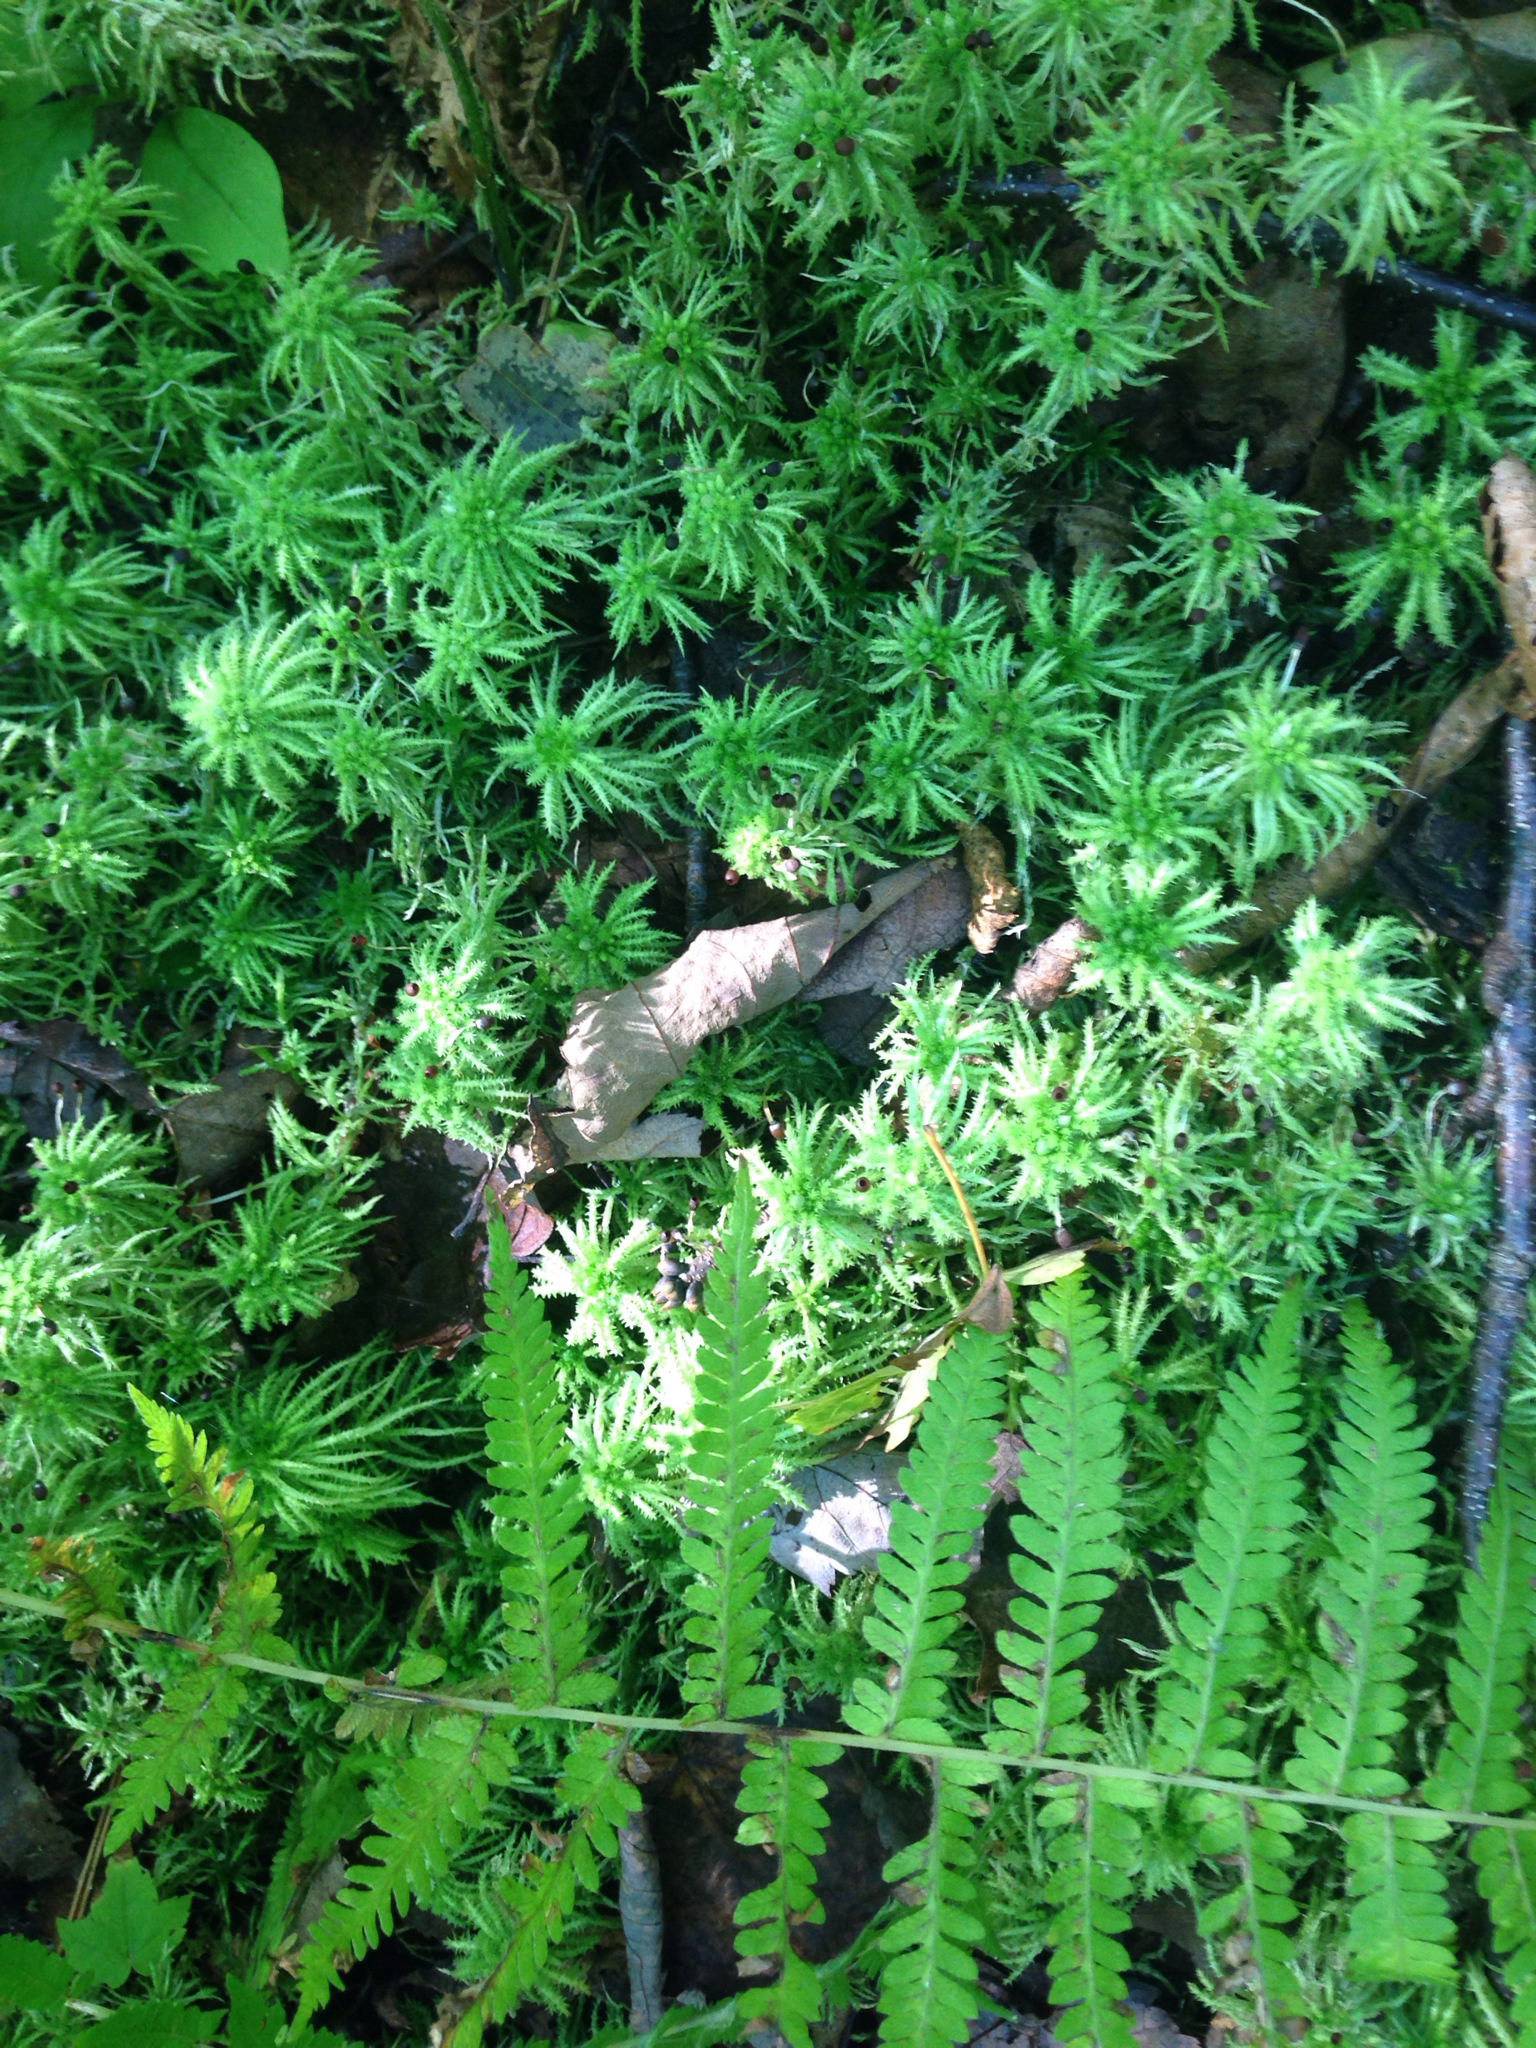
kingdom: Plantae
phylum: Bryophyta
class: Sphagnopsida
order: Sphagnales
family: Sphagnaceae
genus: Sphagnum
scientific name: Sphagnum squarrosum
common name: Shaggy peat moss
